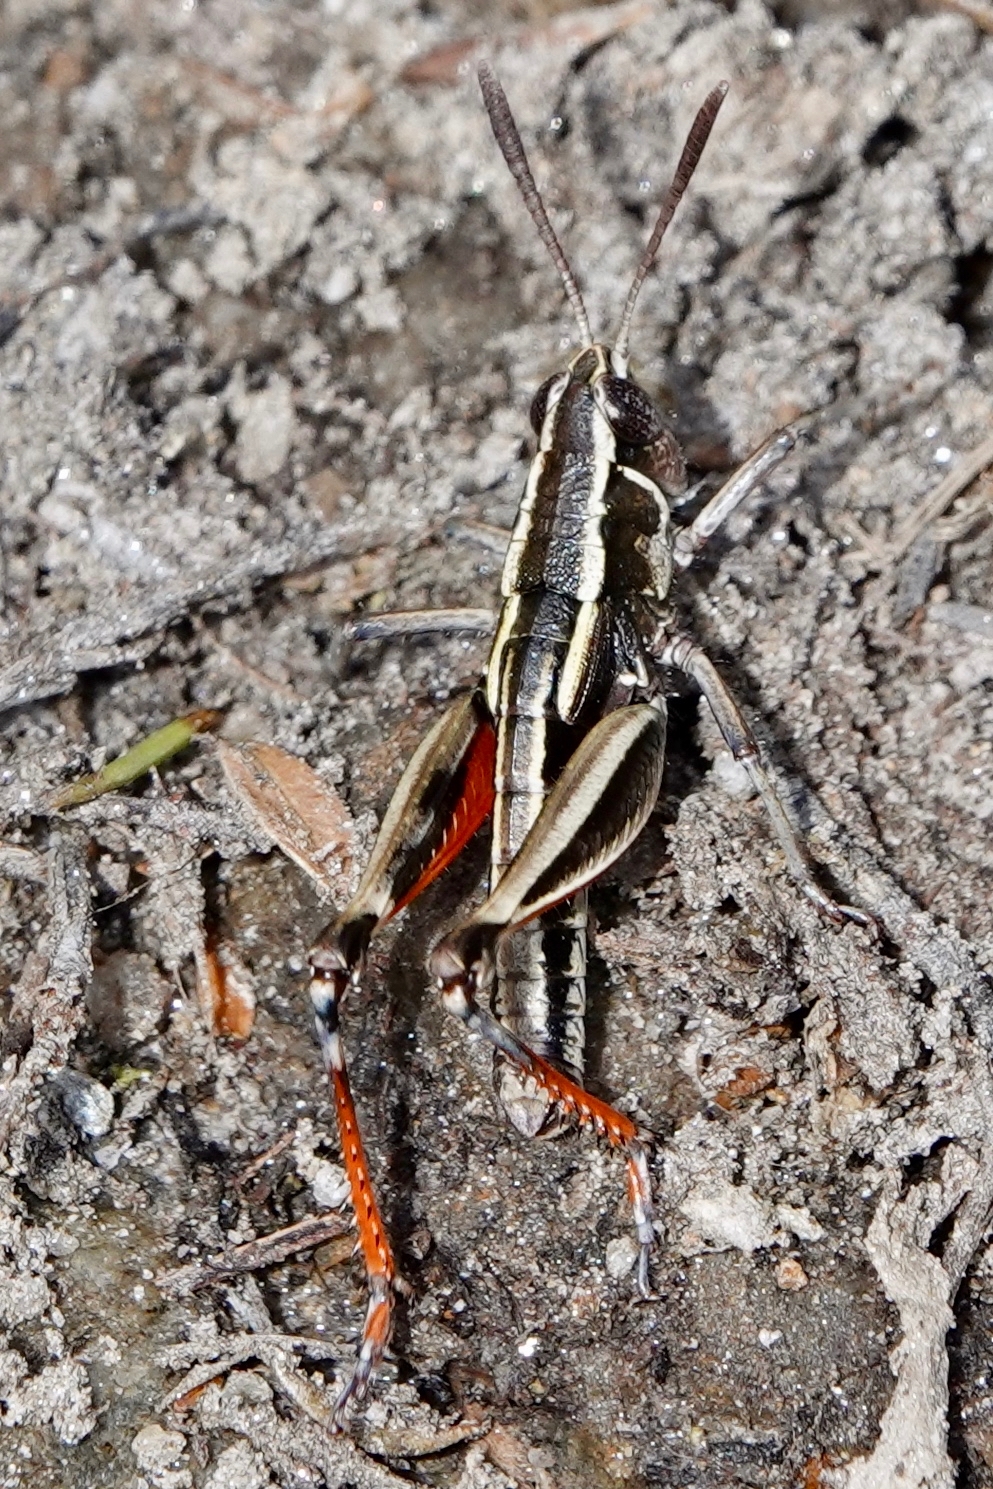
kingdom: Animalia
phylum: Arthropoda
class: Insecta
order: Orthoptera
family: Acrididae
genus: Sigaus
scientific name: Sigaus australis
